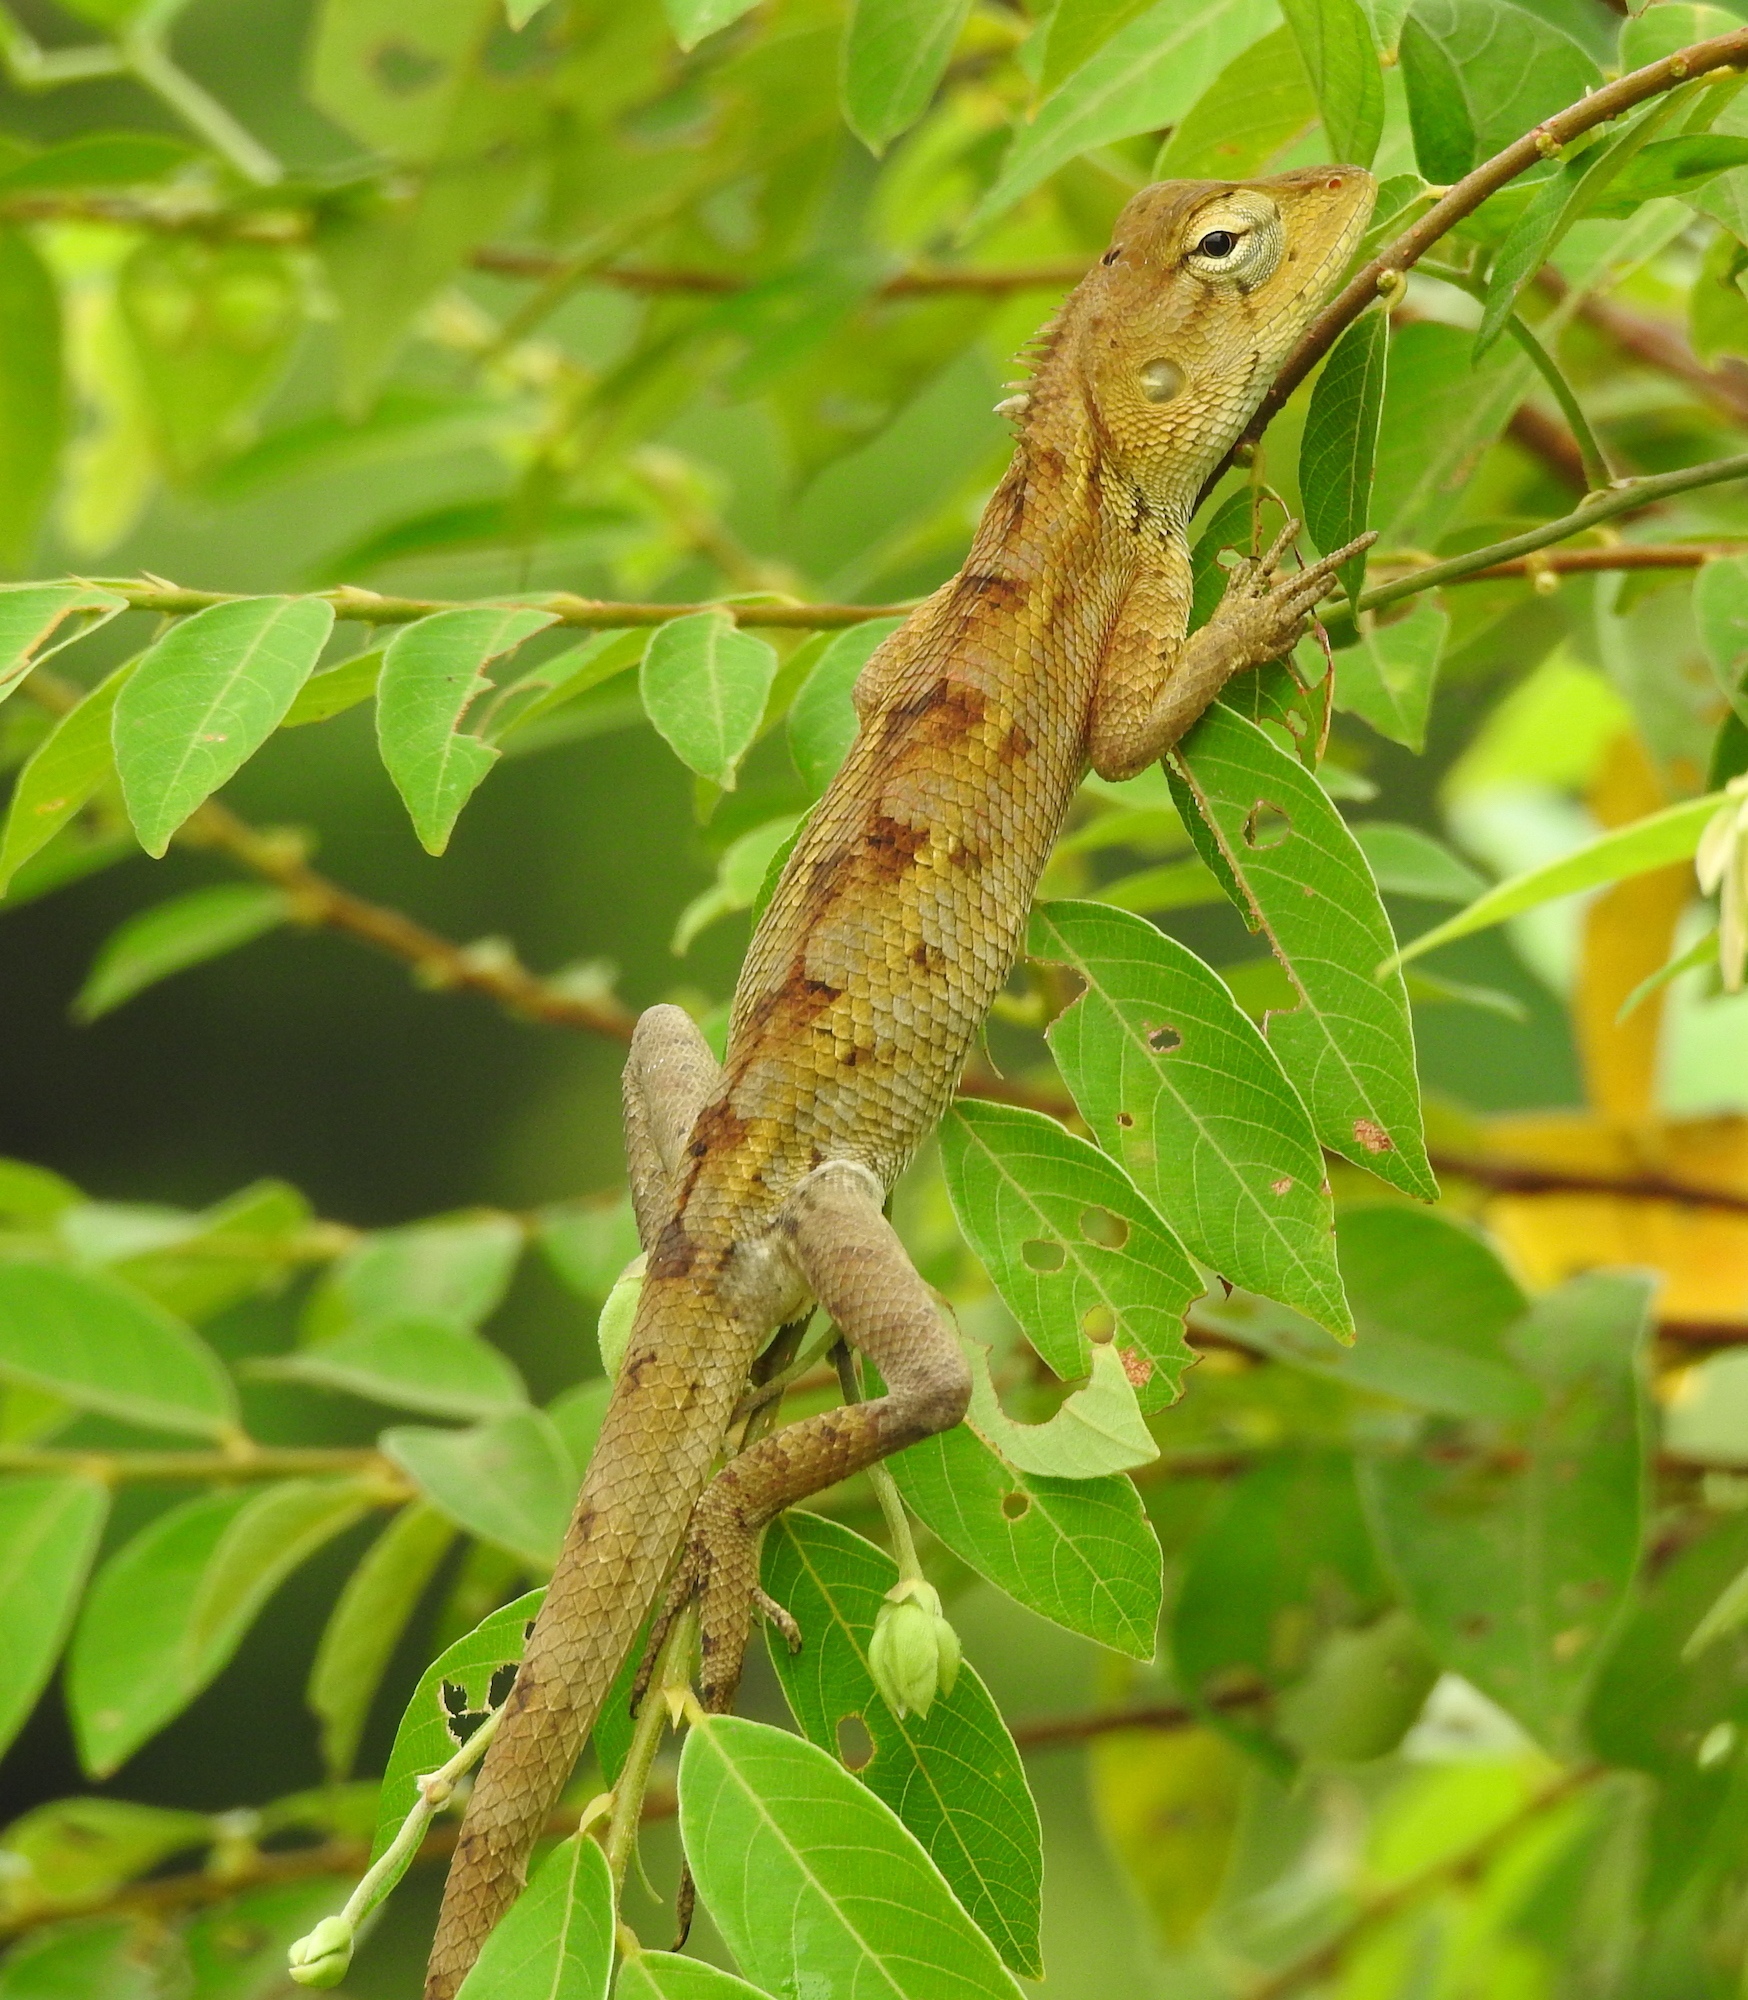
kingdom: Animalia
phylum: Chordata
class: Squamata
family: Agamidae
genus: Calotes
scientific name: Calotes versicolor
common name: Oriental garden lizard
